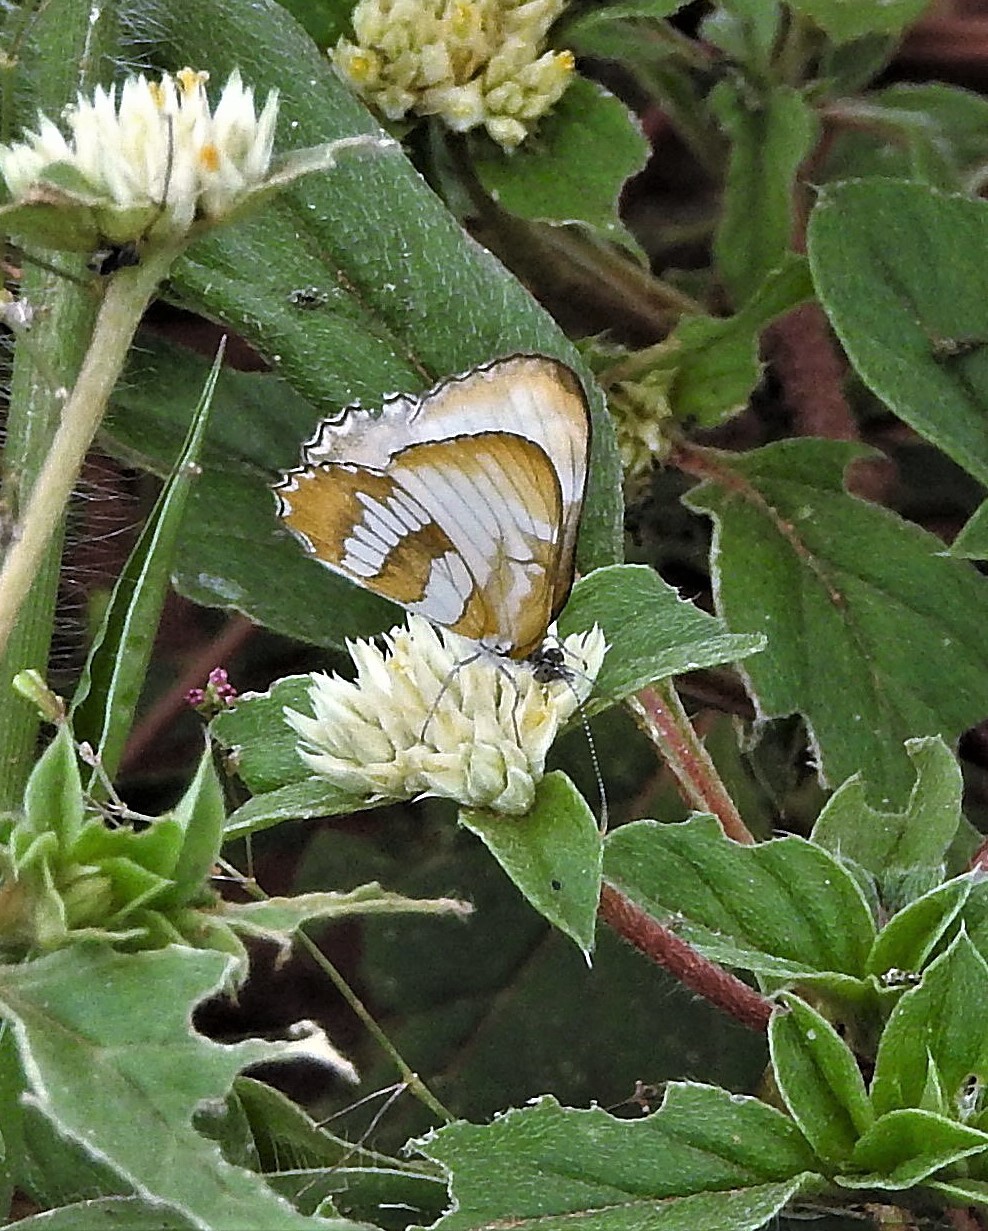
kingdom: Animalia
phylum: Arthropoda
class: Insecta
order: Lepidoptera
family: Nymphalidae
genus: Mestra
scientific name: Mestra hersilia
